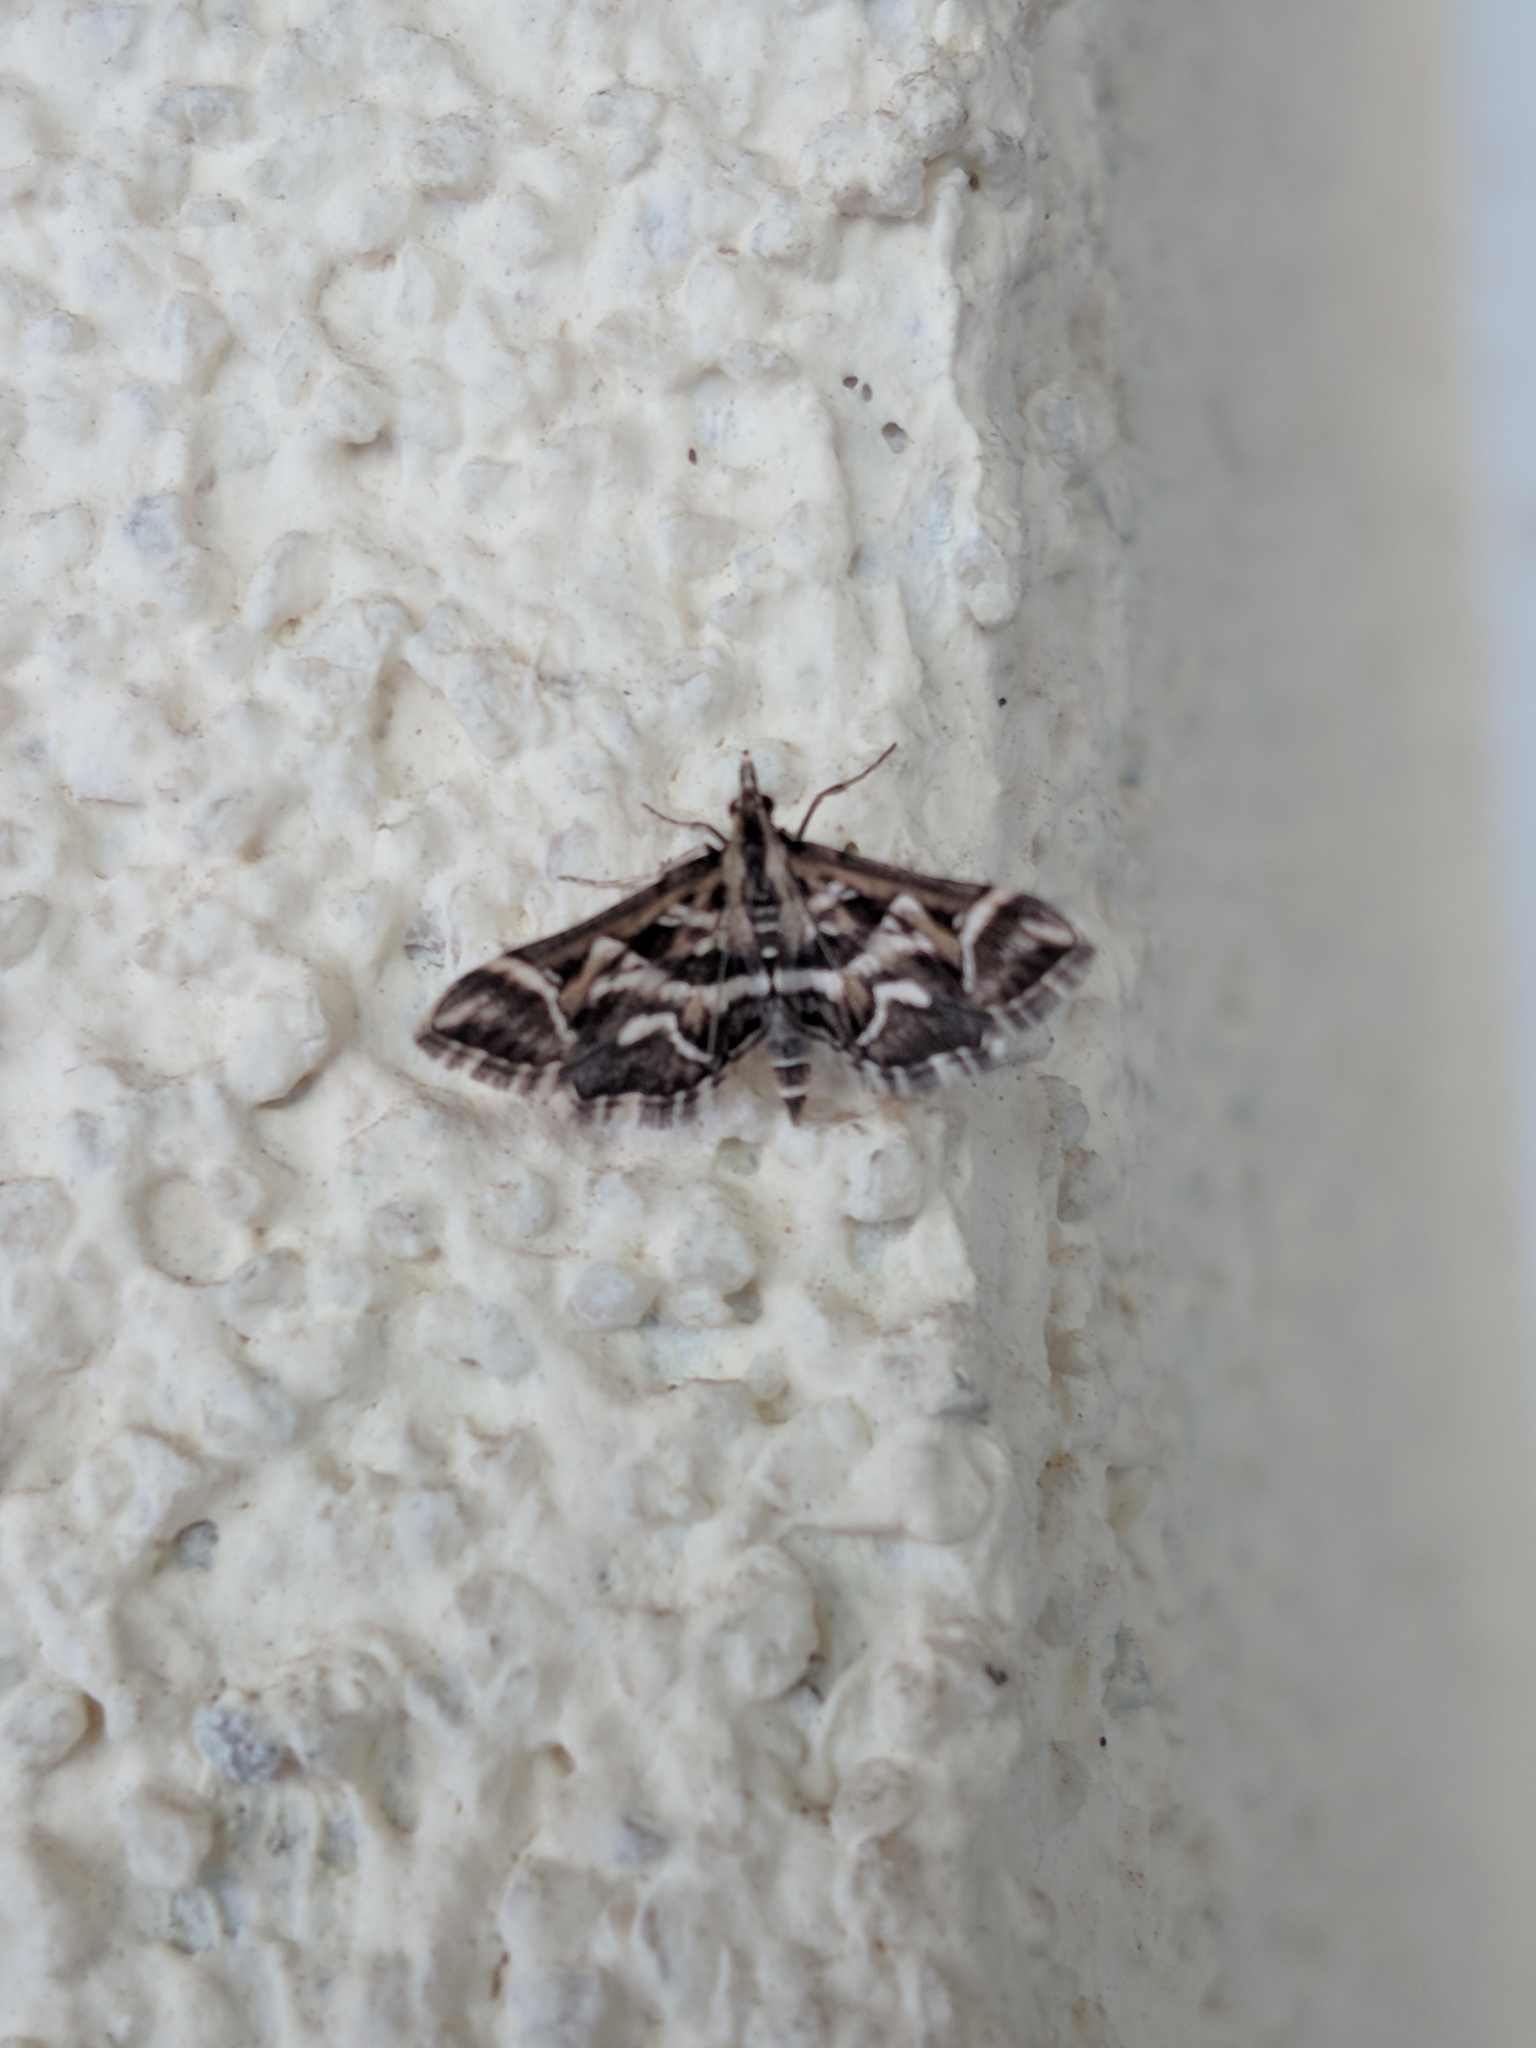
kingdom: Animalia
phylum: Arthropoda
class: Insecta
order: Lepidoptera
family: Crambidae
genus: Diasemia
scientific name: Diasemia reticularis
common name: Lettered china-mark
